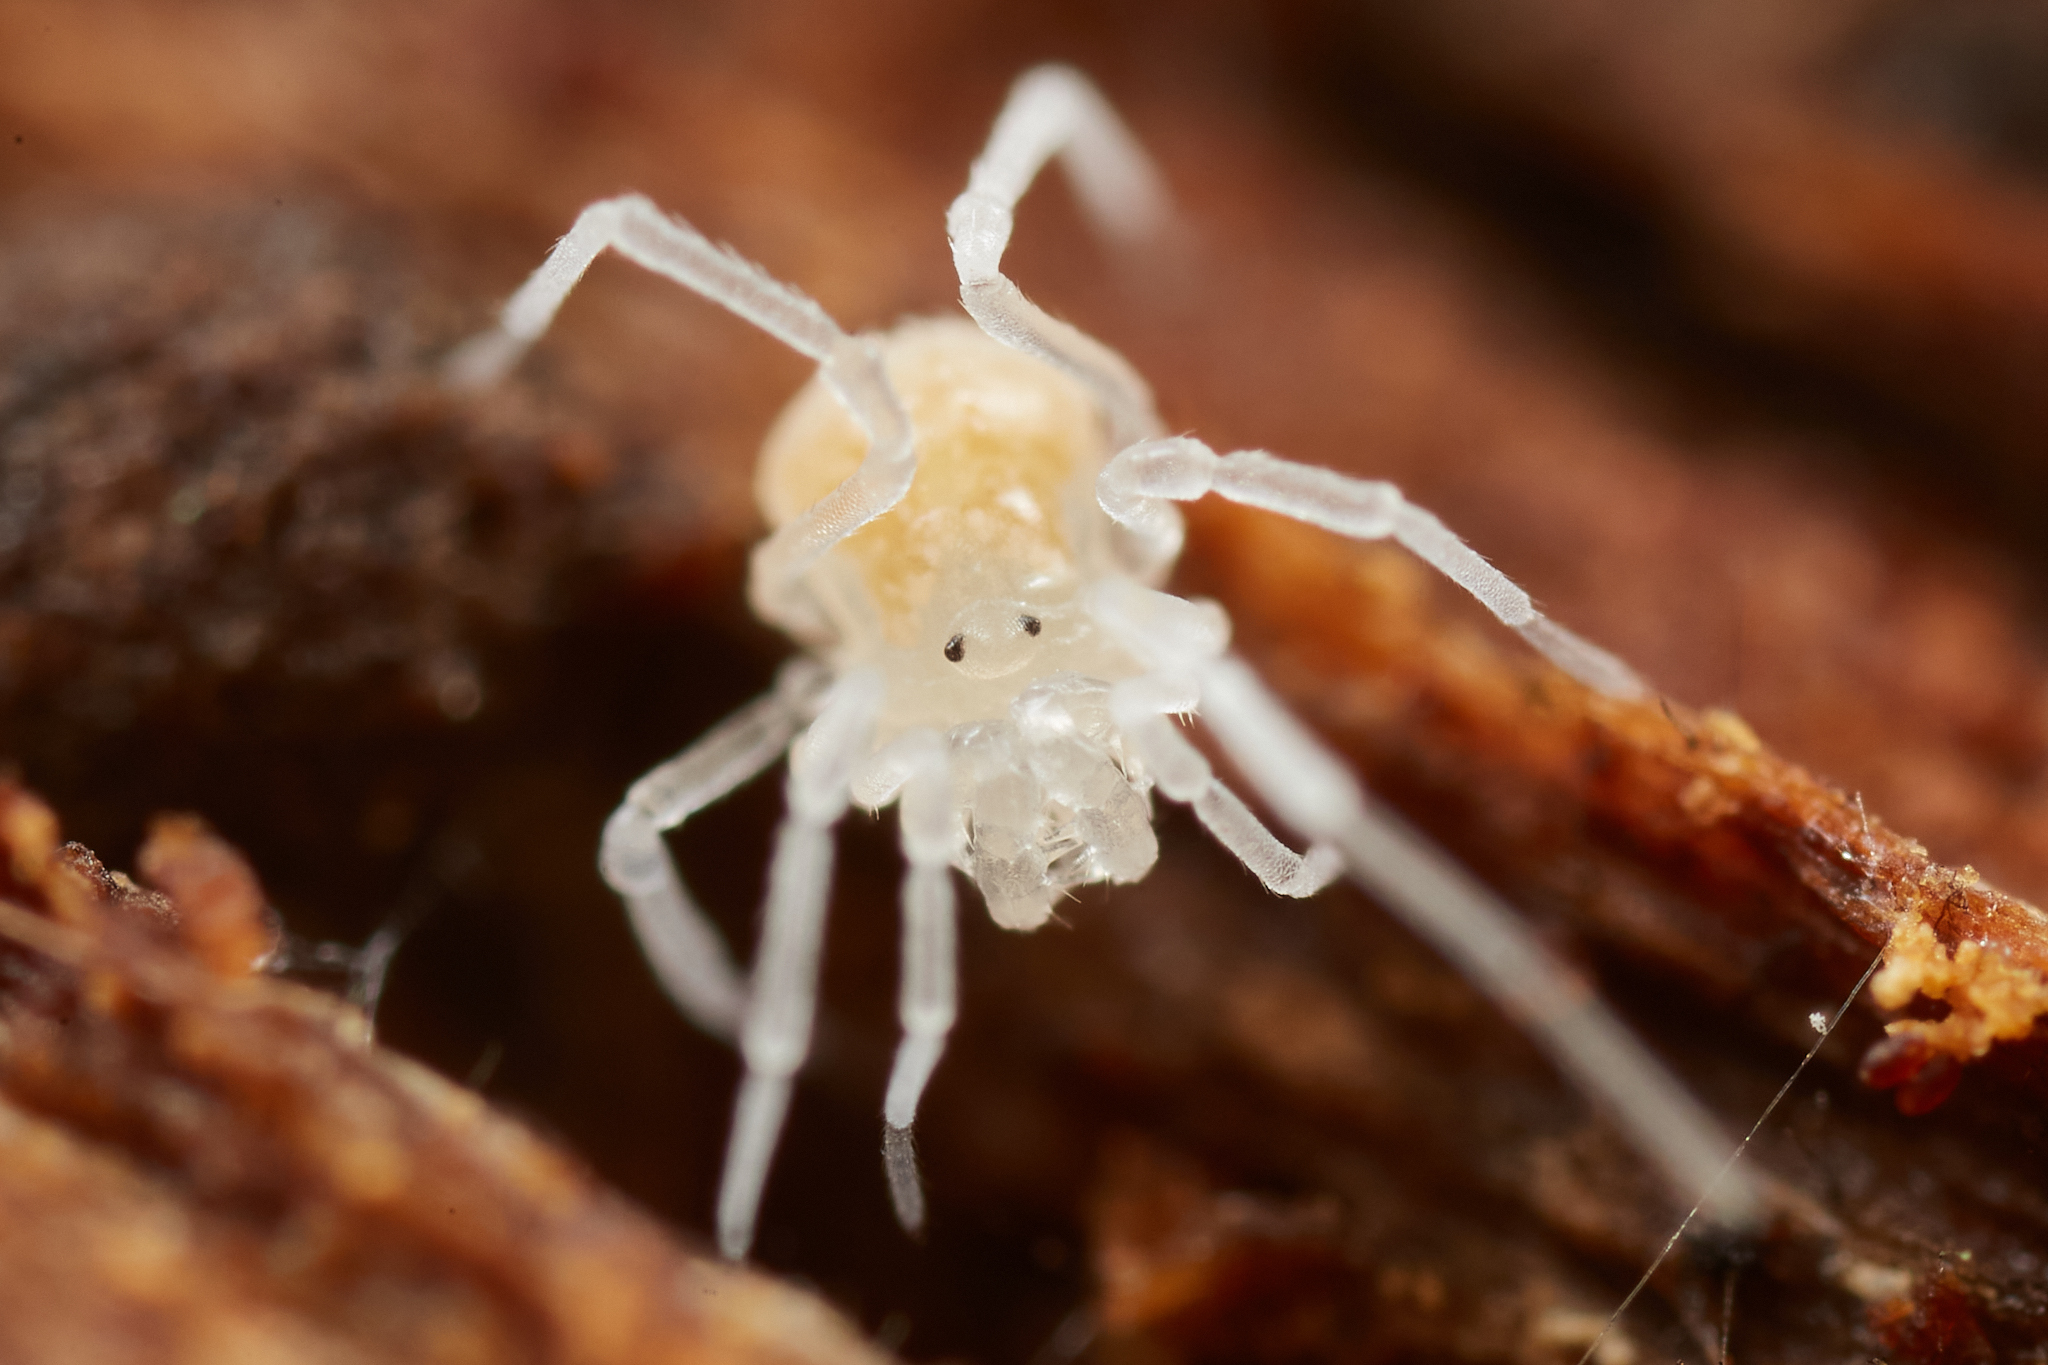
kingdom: Animalia
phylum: Arthropoda
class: Arachnida
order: Opiliones
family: Phalangodidae
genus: Sitalcina
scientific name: Sitalcina californica
